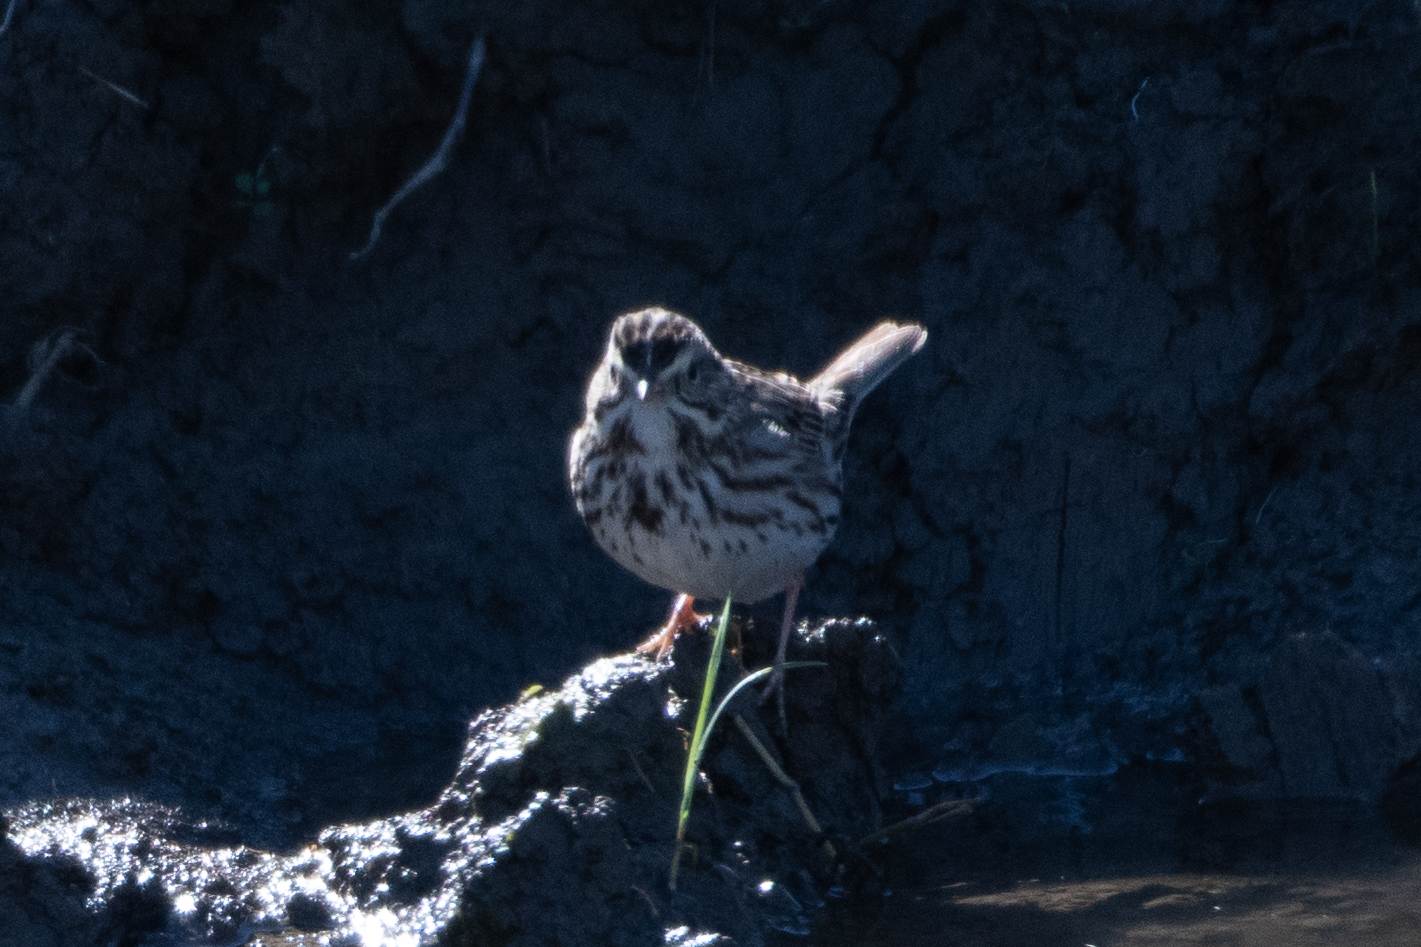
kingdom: Animalia
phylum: Chordata
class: Aves
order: Passeriformes
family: Passerellidae
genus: Melospiza
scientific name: Melospiza melodia
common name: Song sparrow
